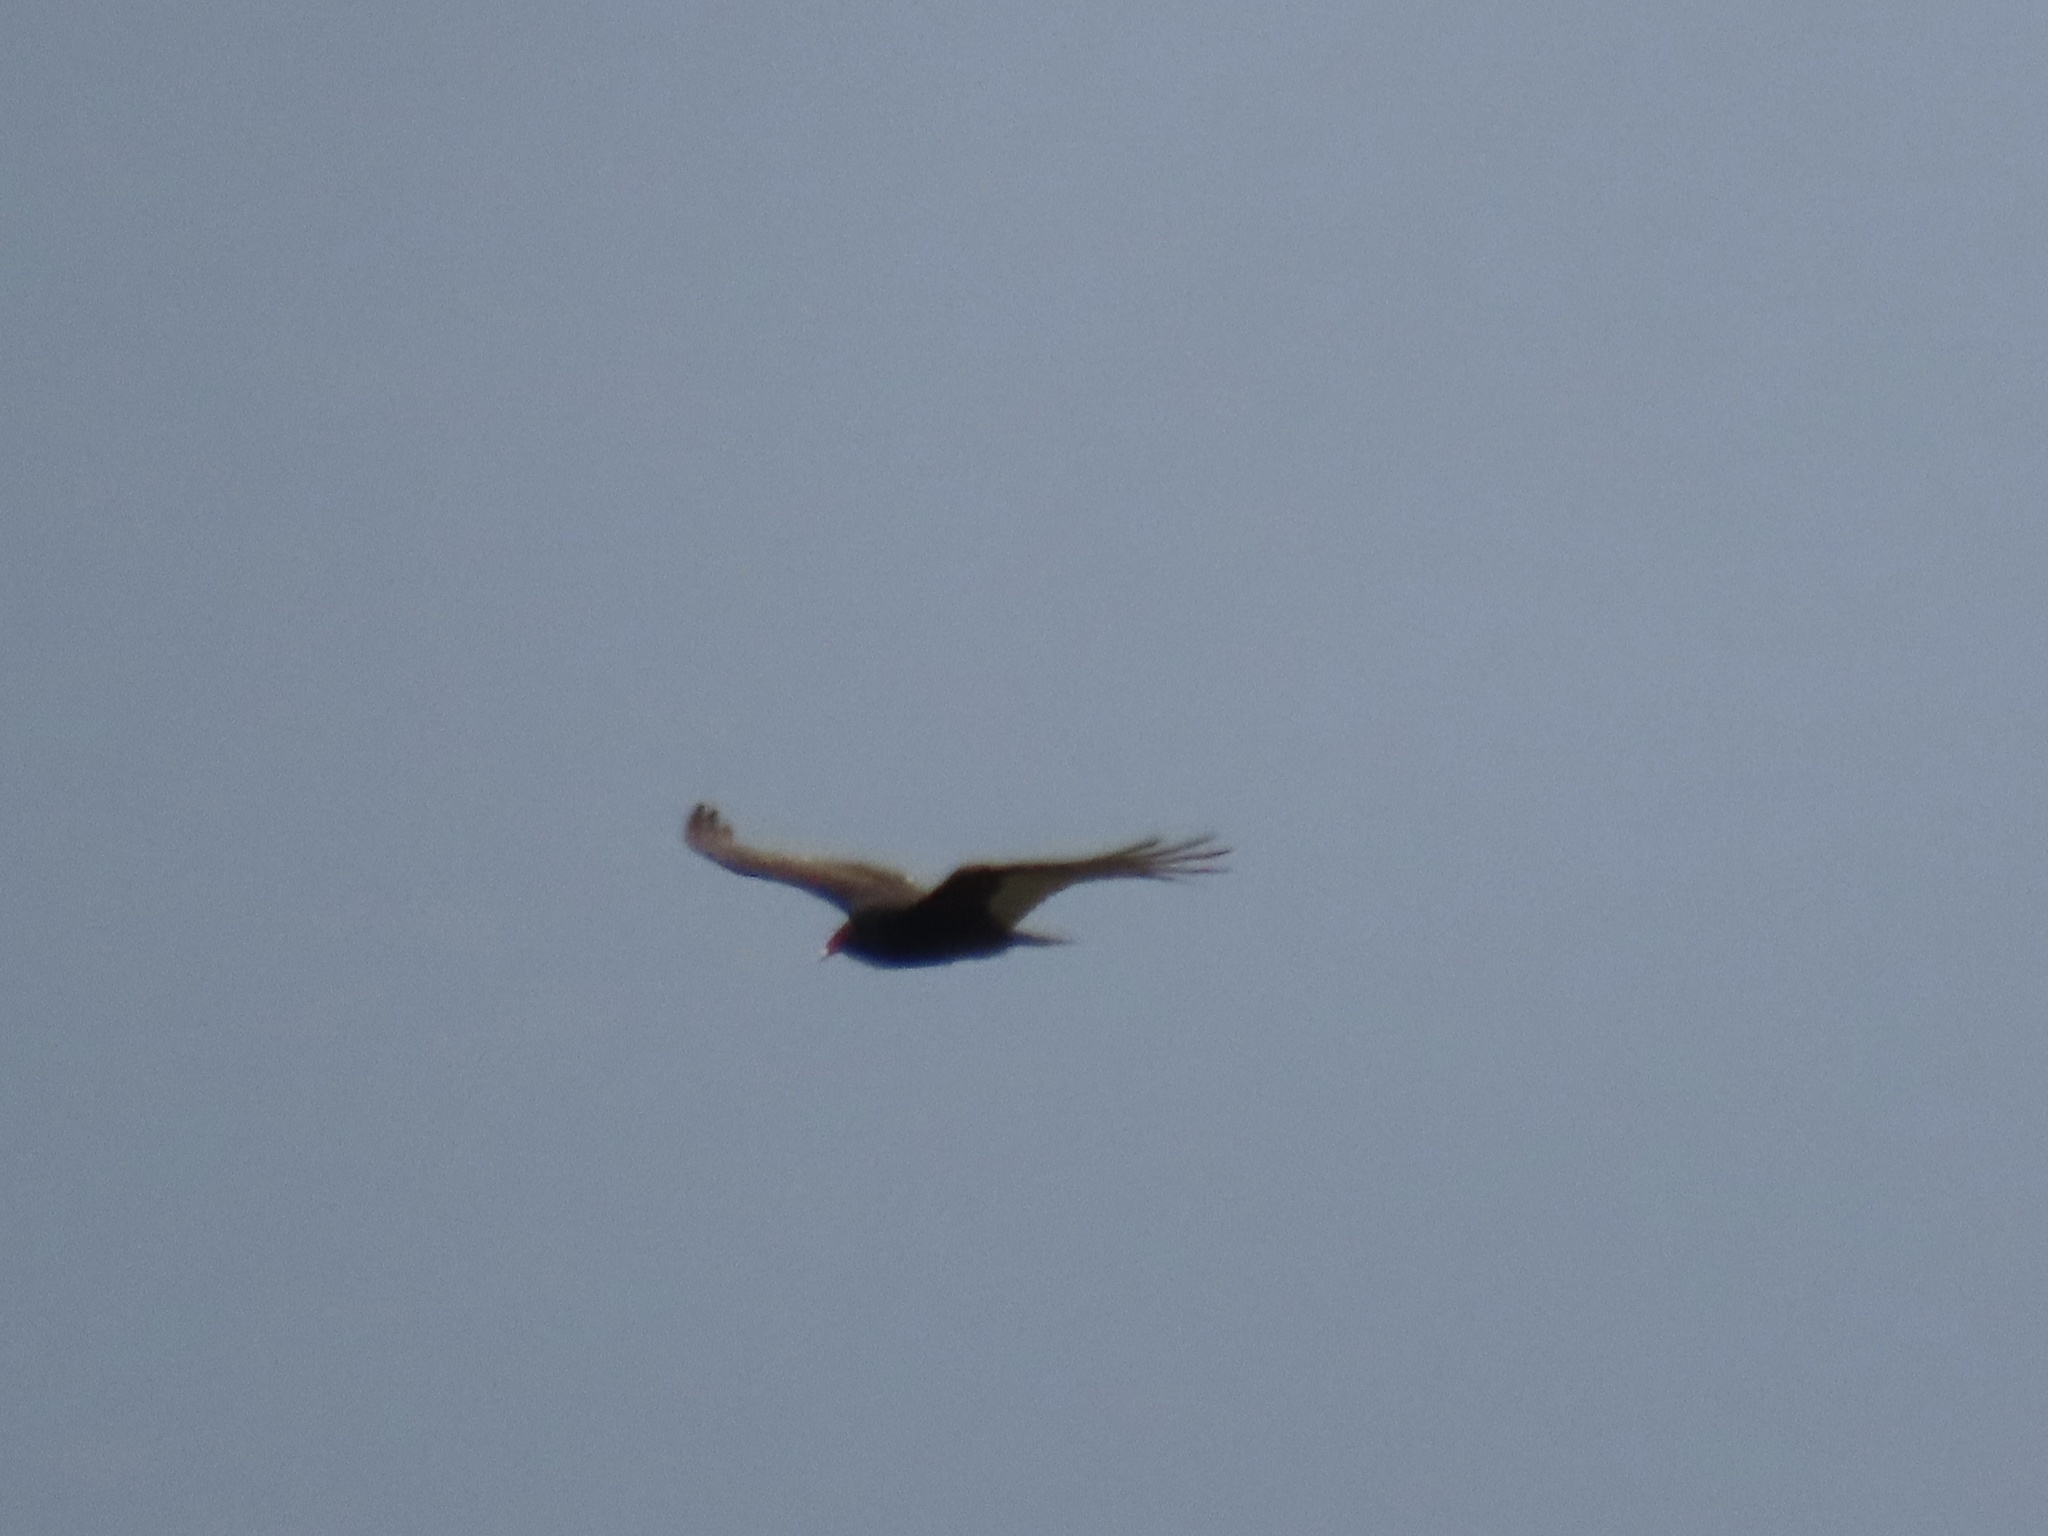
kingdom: Animalia
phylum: Chordata
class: Aves
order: Accipitriformes
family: Cathartidae
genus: Cathartes
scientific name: Cathartes aura
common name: Turkey vulture
